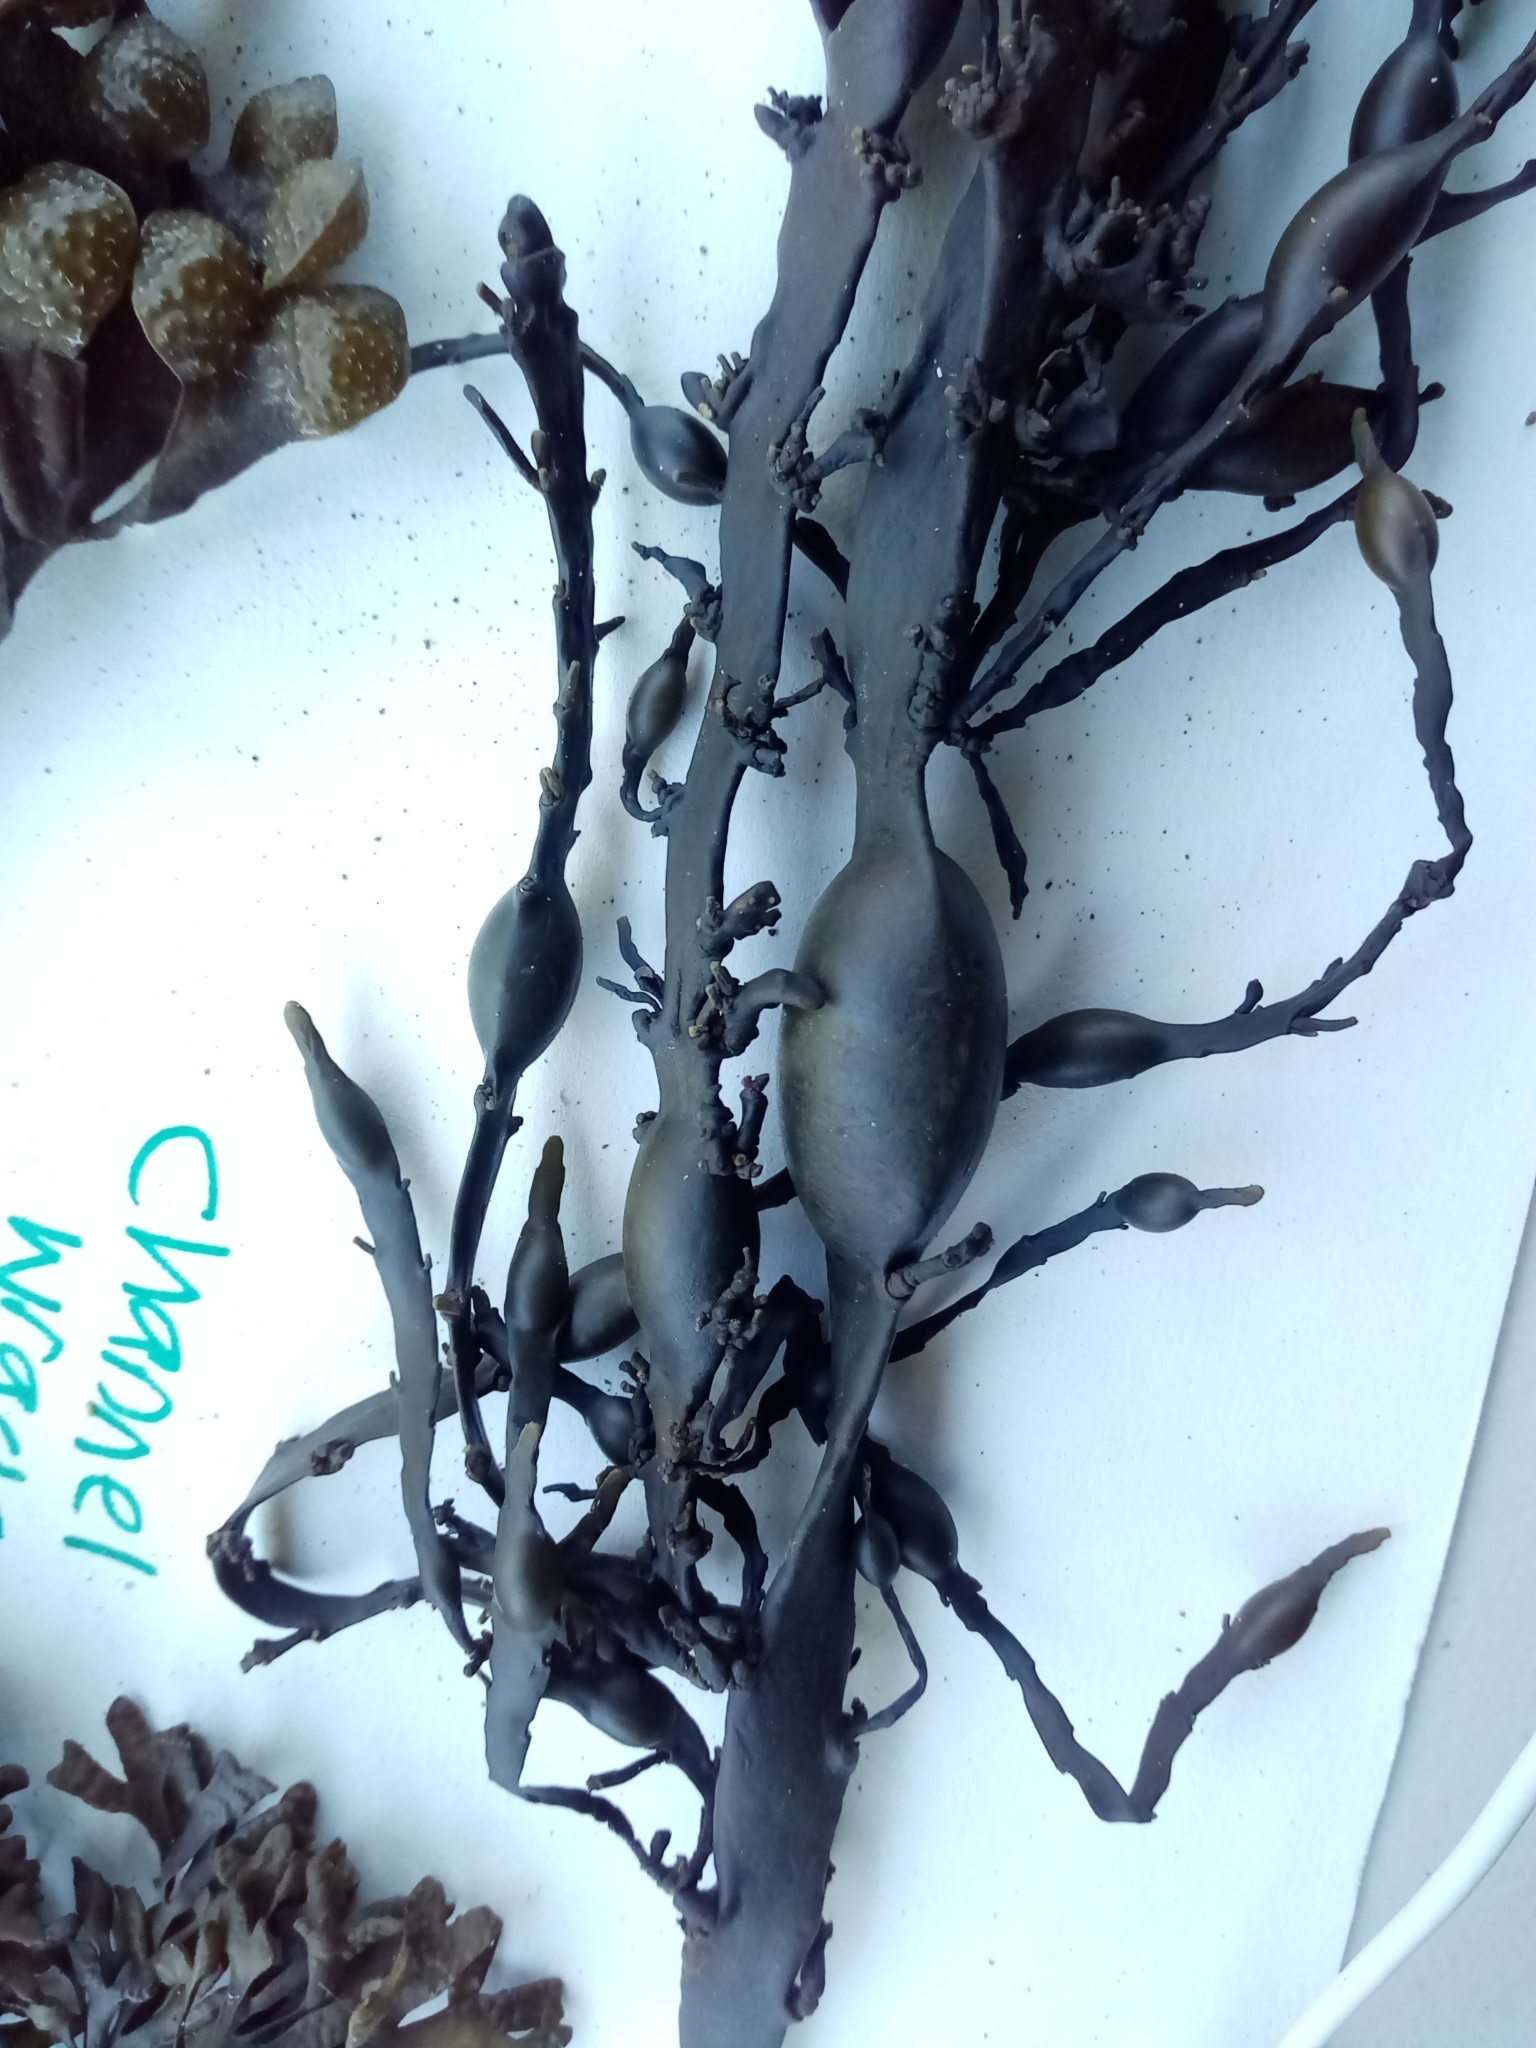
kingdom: Chromista
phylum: Ochrophyta
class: Phaeophyceae
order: Fucales
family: Fucaceae
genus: Ascophyllum
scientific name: Ascophyllum nodosum
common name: Knotted wrack
